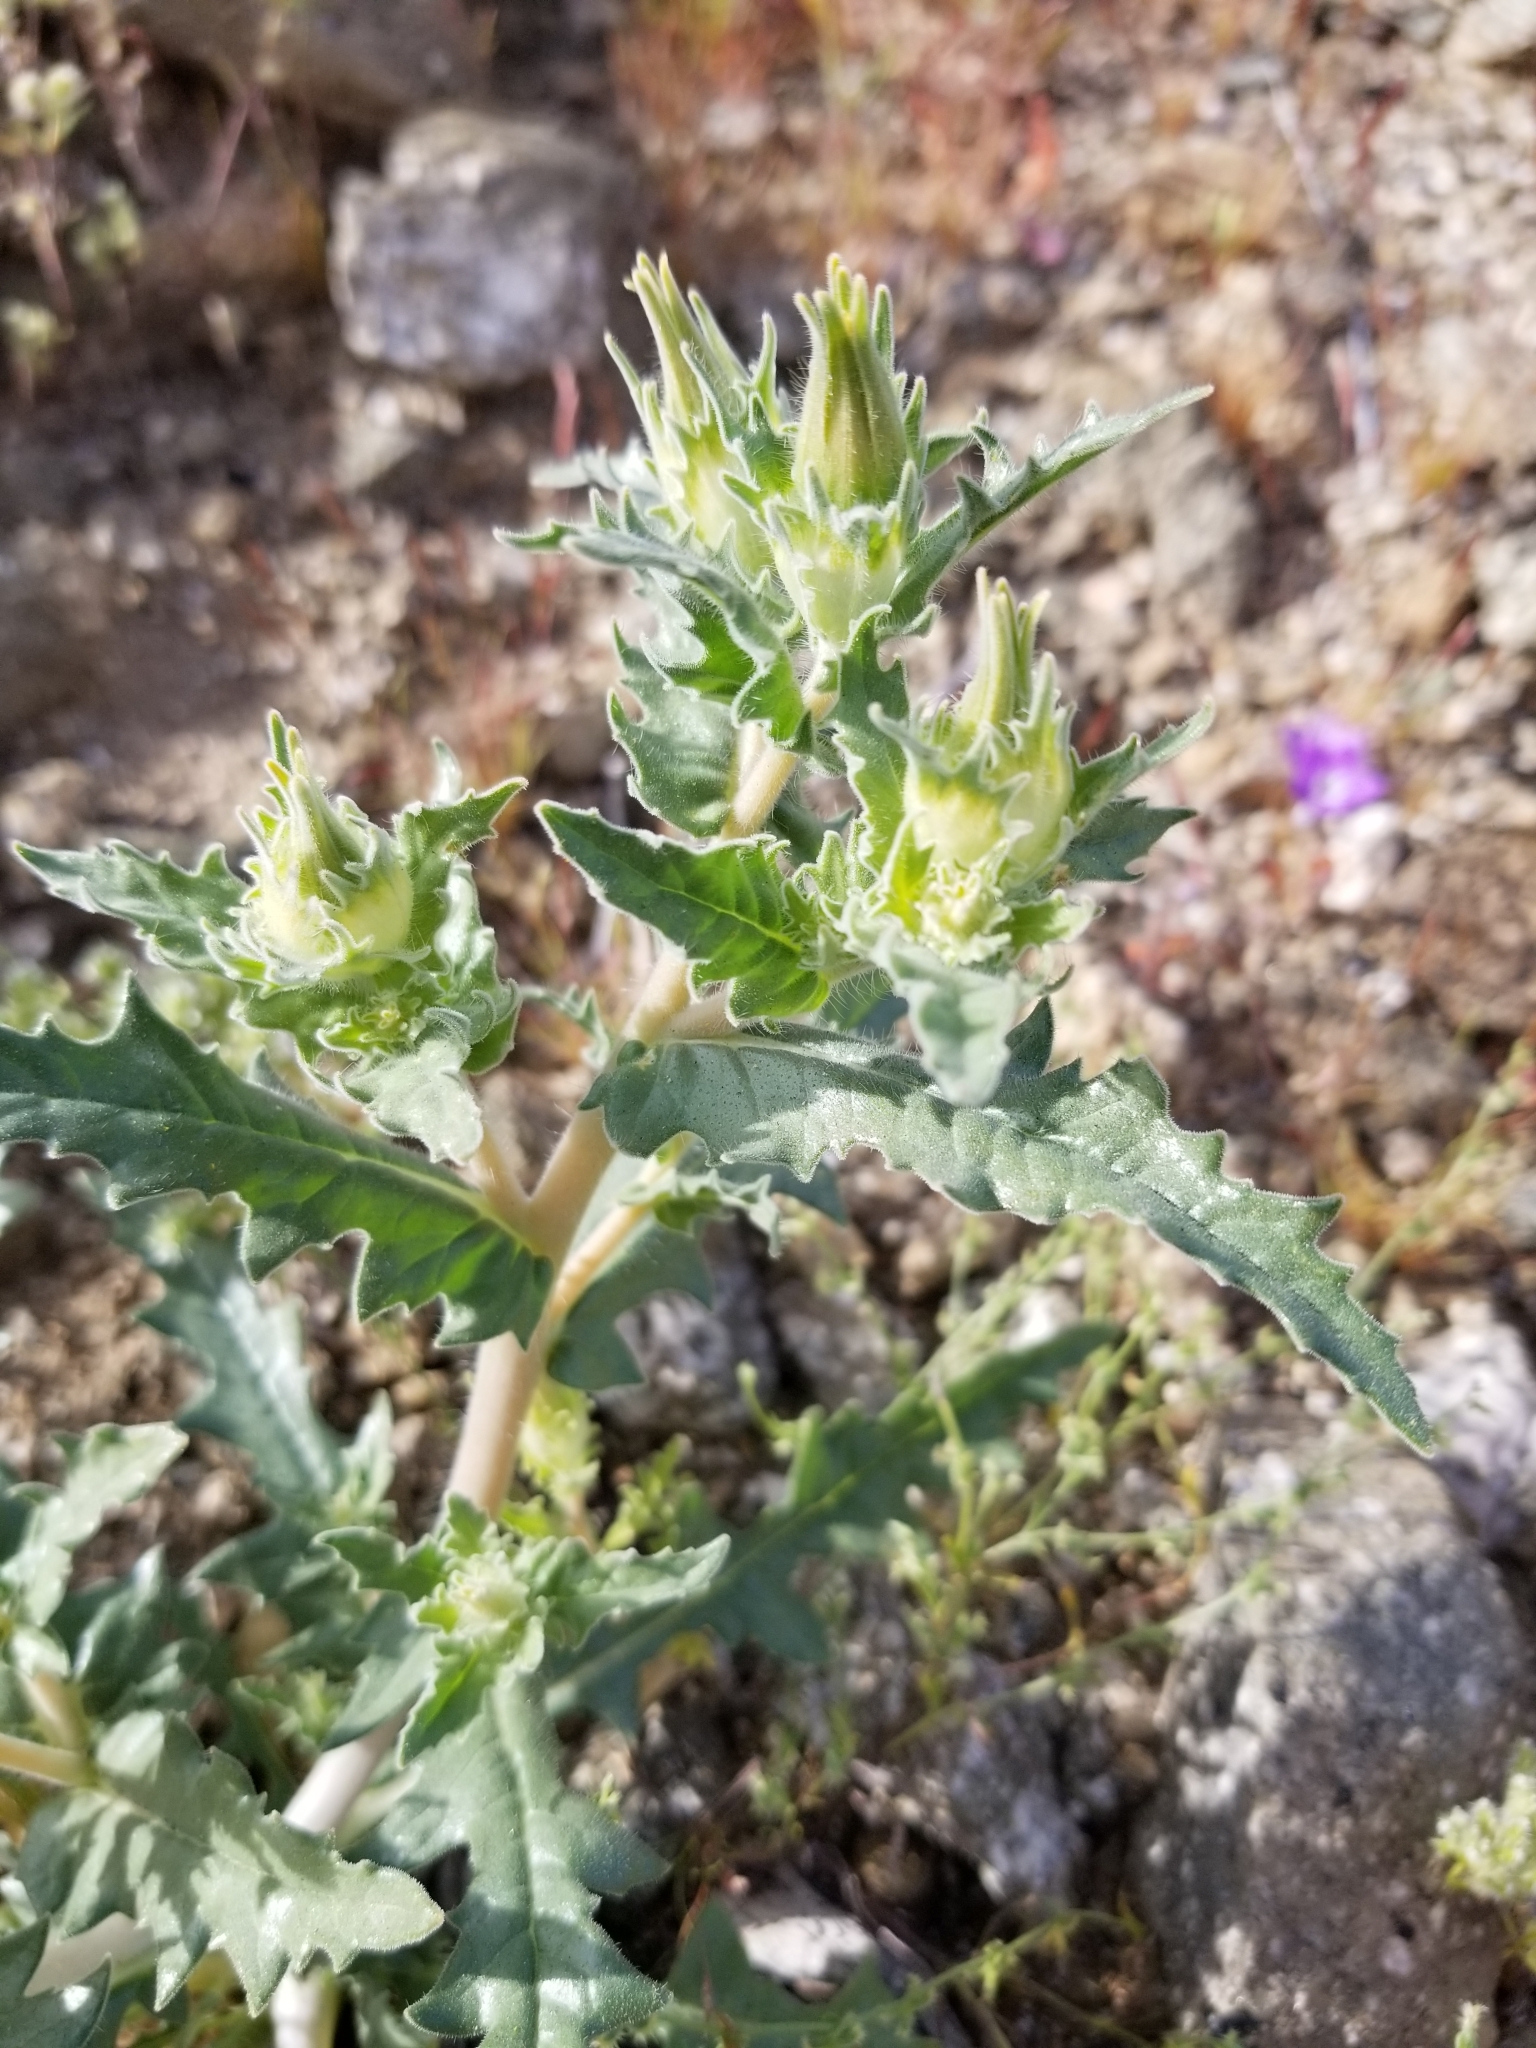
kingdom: Plantae
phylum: Tracheophyta
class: Magnoliopsida
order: Cornales
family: Loasaceae
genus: Mentzelia
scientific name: Mentzelia involucrata
